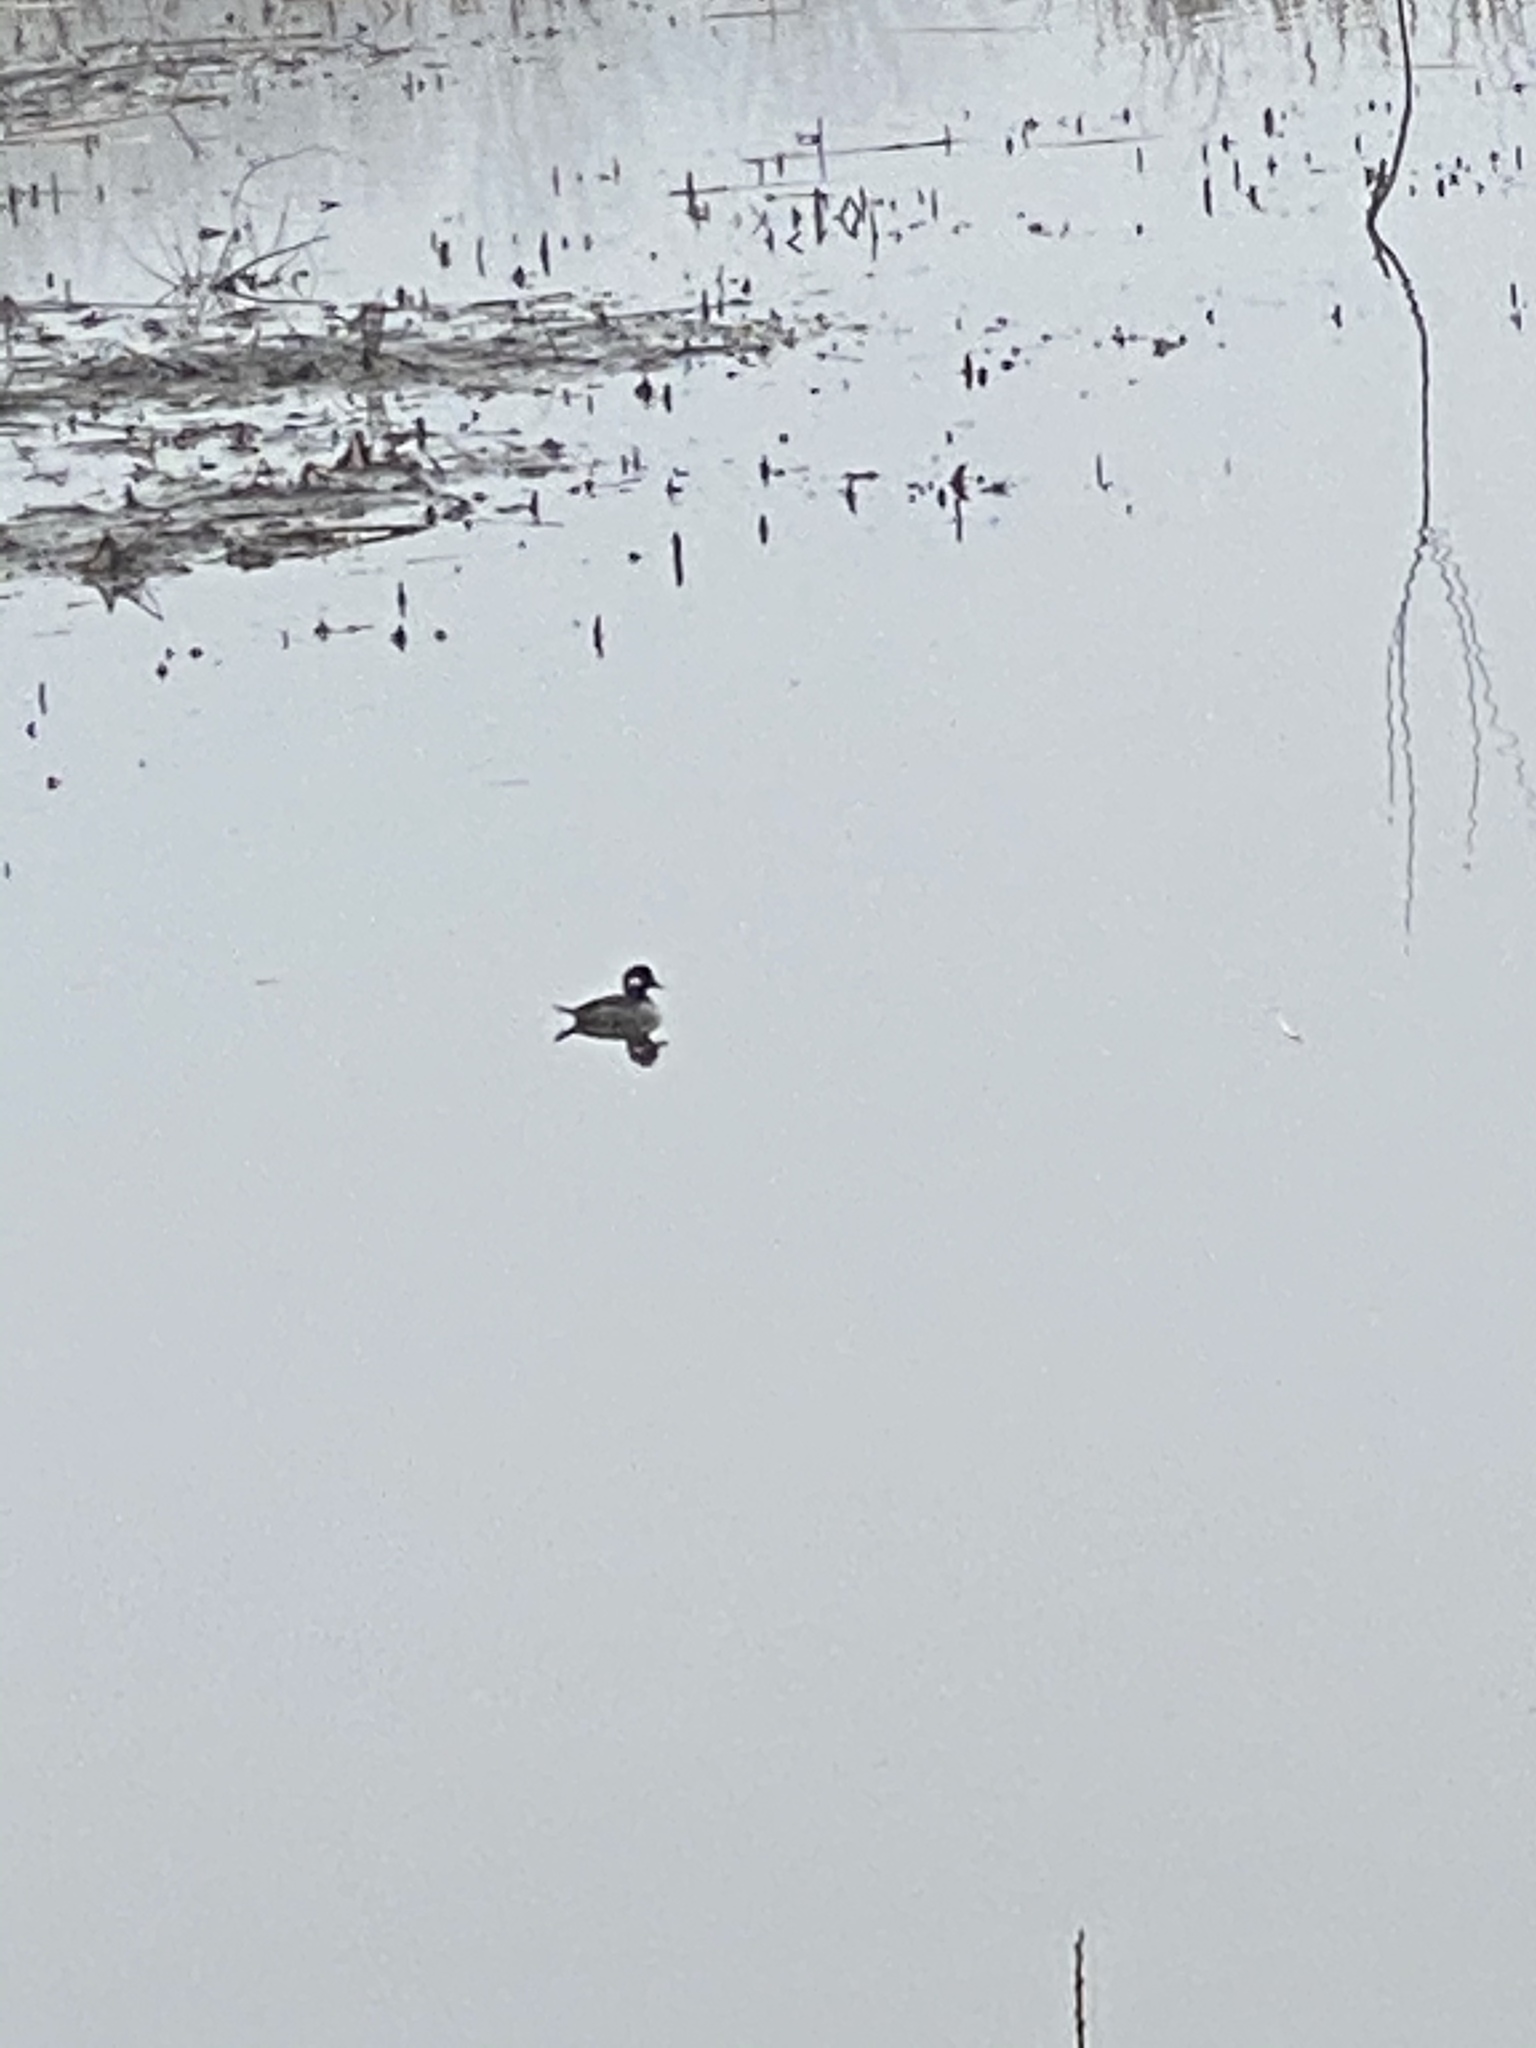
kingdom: Animalia
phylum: Chordata
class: Aves
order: Anseriformes
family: Anatidae
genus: Bucephala
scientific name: Bucephala albeola
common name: Bufflehead
